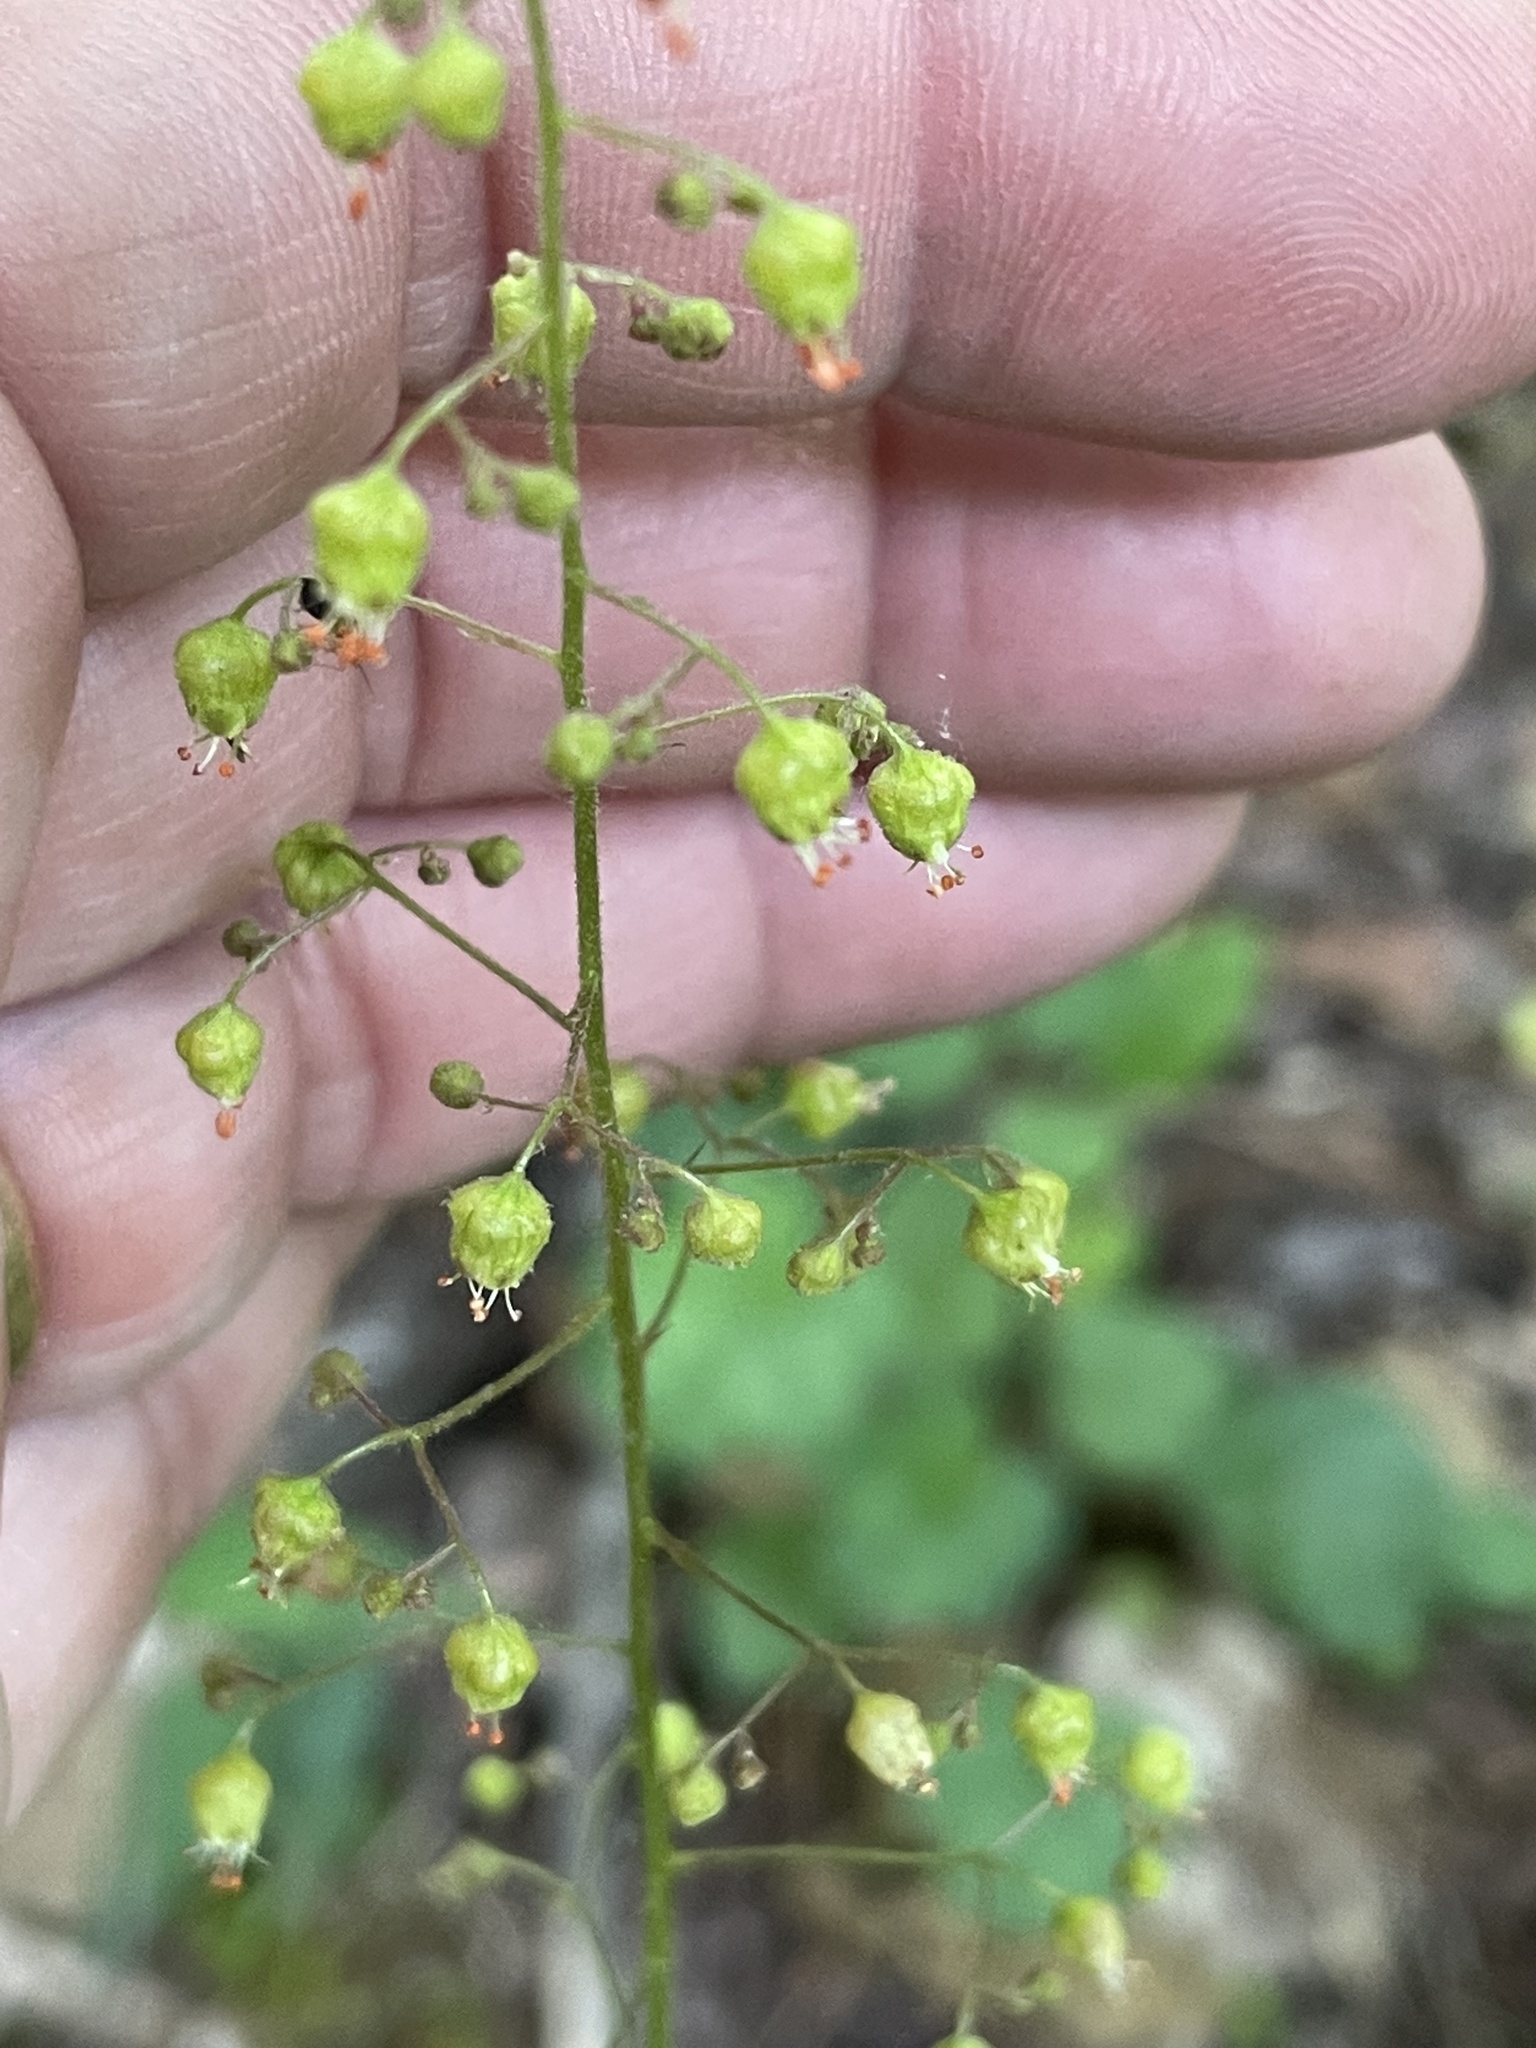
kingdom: Plantae
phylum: Tracheophyta
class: Magnoliopsida
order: Saxifragales
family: Saxifragaceae
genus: Heuchera
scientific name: Heuchera caroliniana
